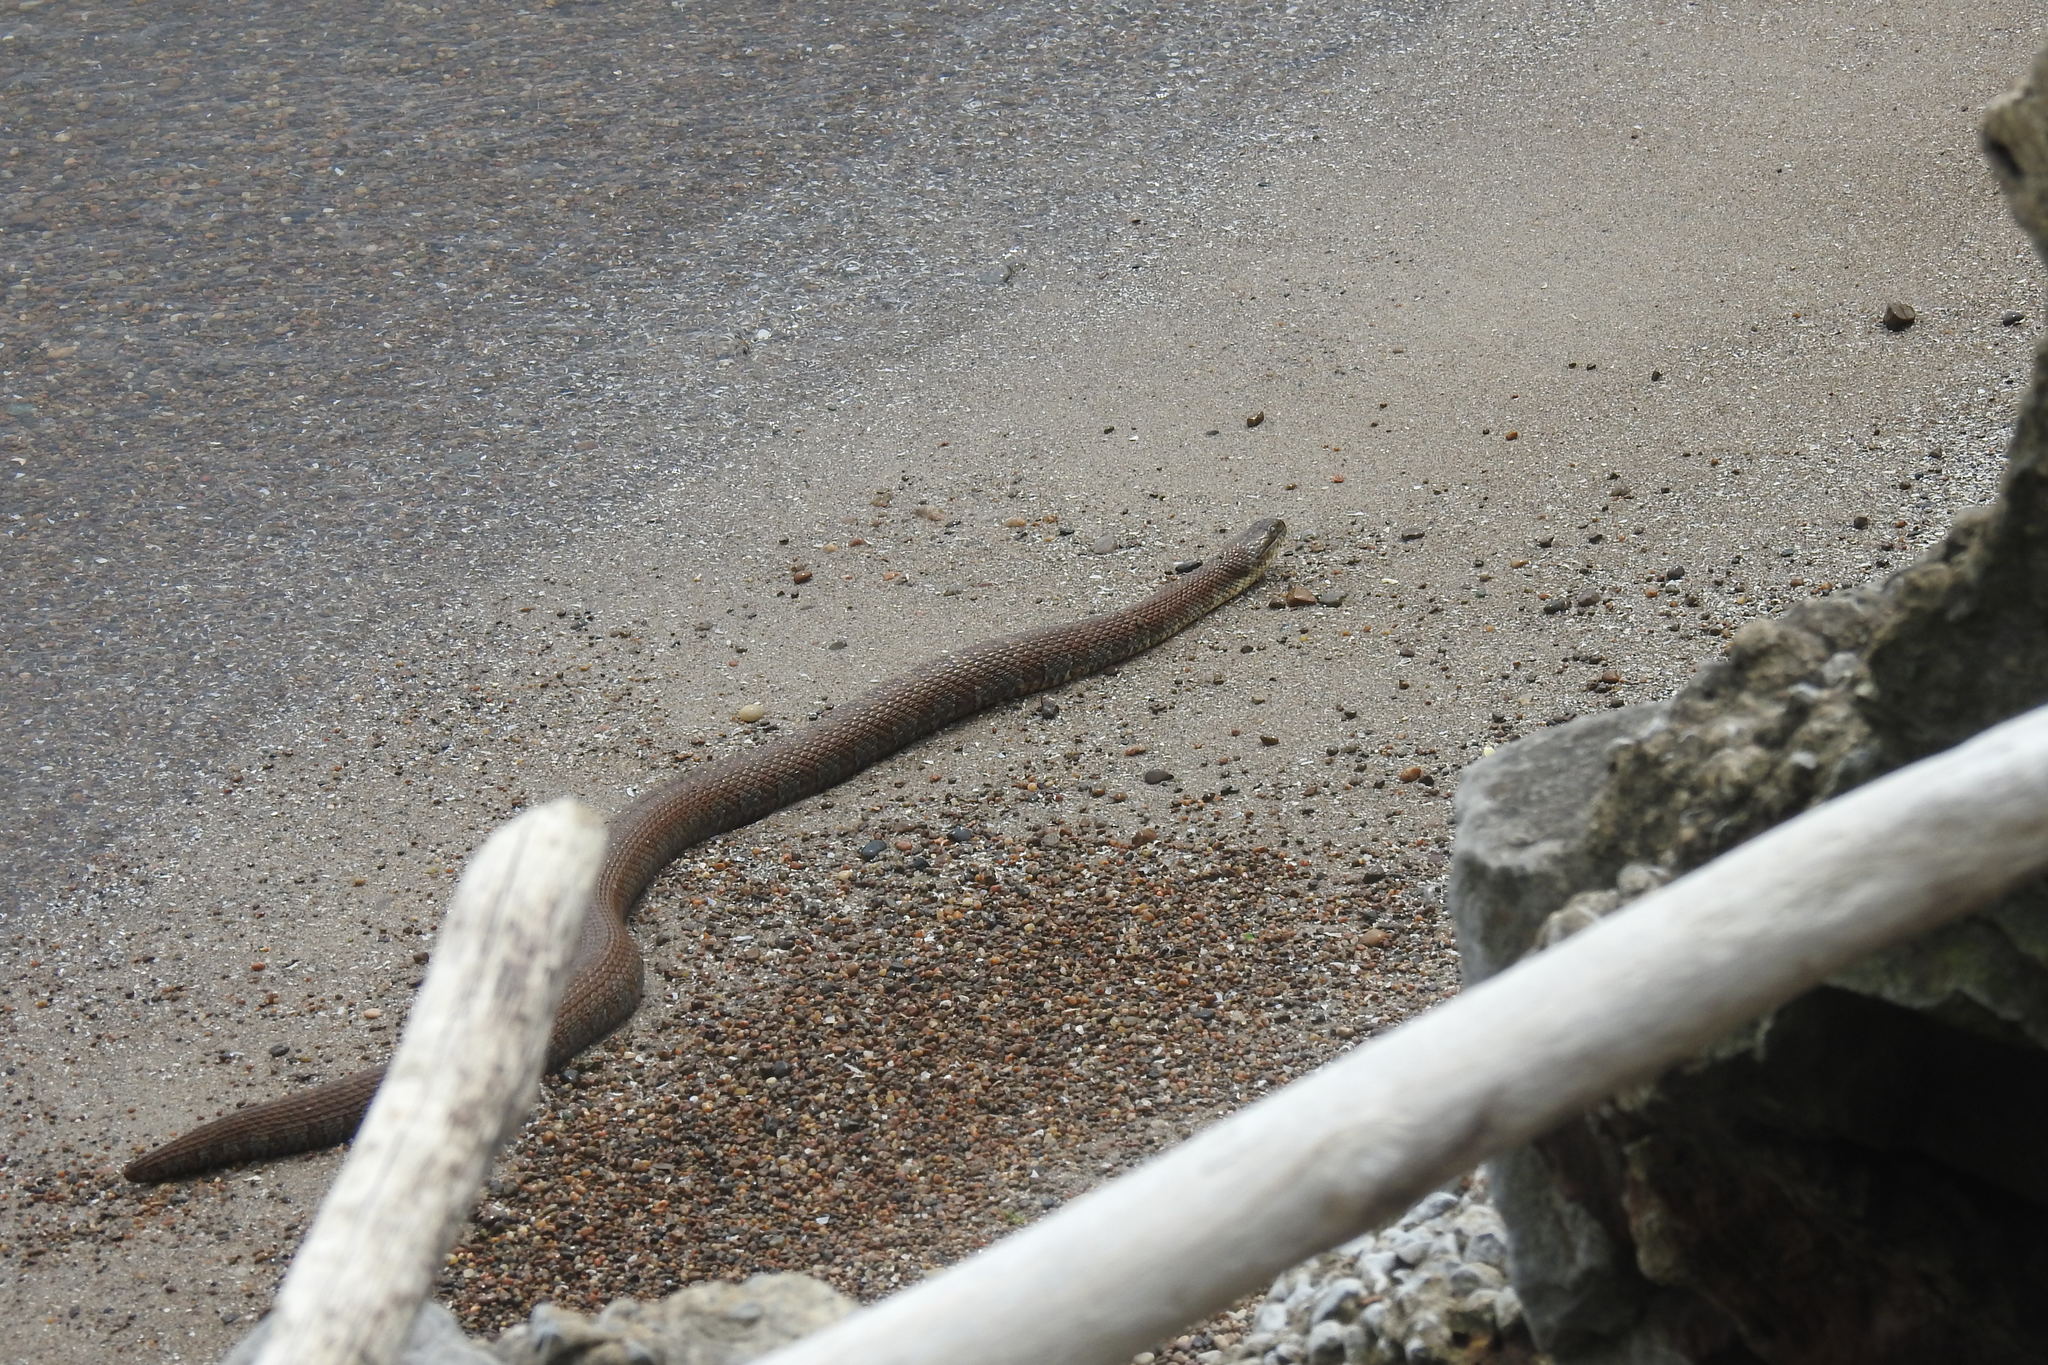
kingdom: Animalia
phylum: Chordata
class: Squamata
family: Colubridae
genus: Nerodia
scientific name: Nerodia sipedon
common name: Northern water snake
